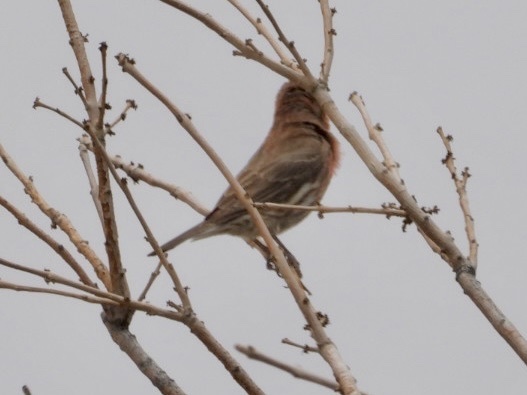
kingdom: Animalia
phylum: Chordata
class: Aves
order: Passeriformes
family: Fringillidae
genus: Haemorhous
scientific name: Haemorhous mexicanus
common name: House finch
